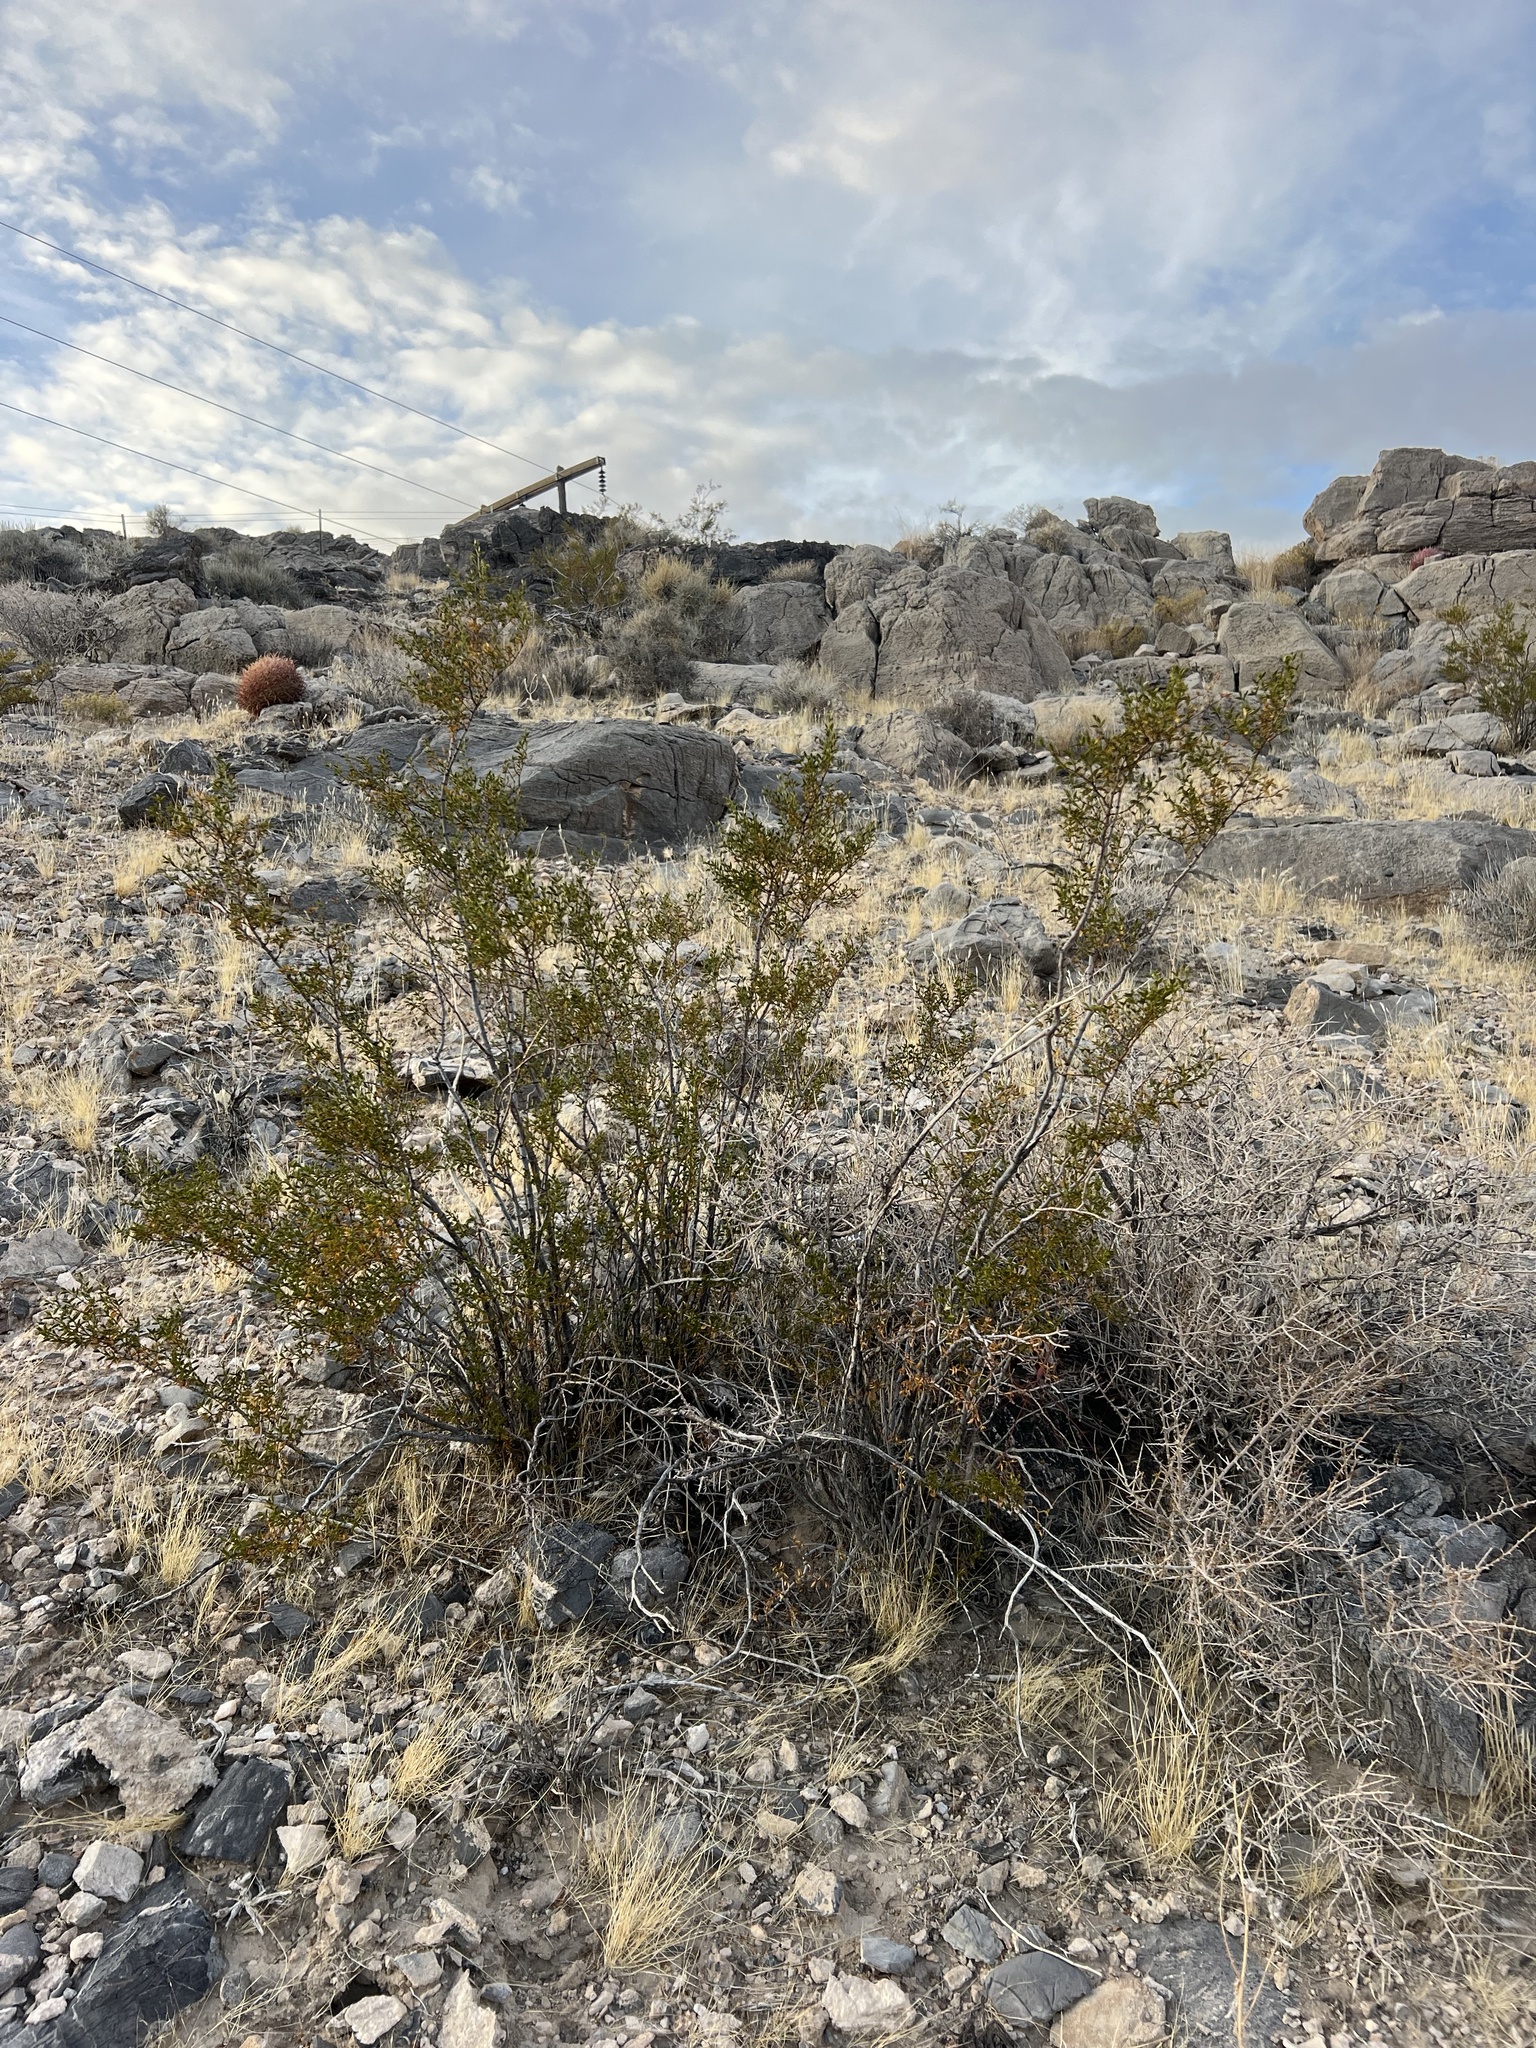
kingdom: Plantae
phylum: Tracheophyta
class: Magnoliopsida
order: Zygophyllales
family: Zygophyllaceae
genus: Larrea
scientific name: Larrea tridentata
